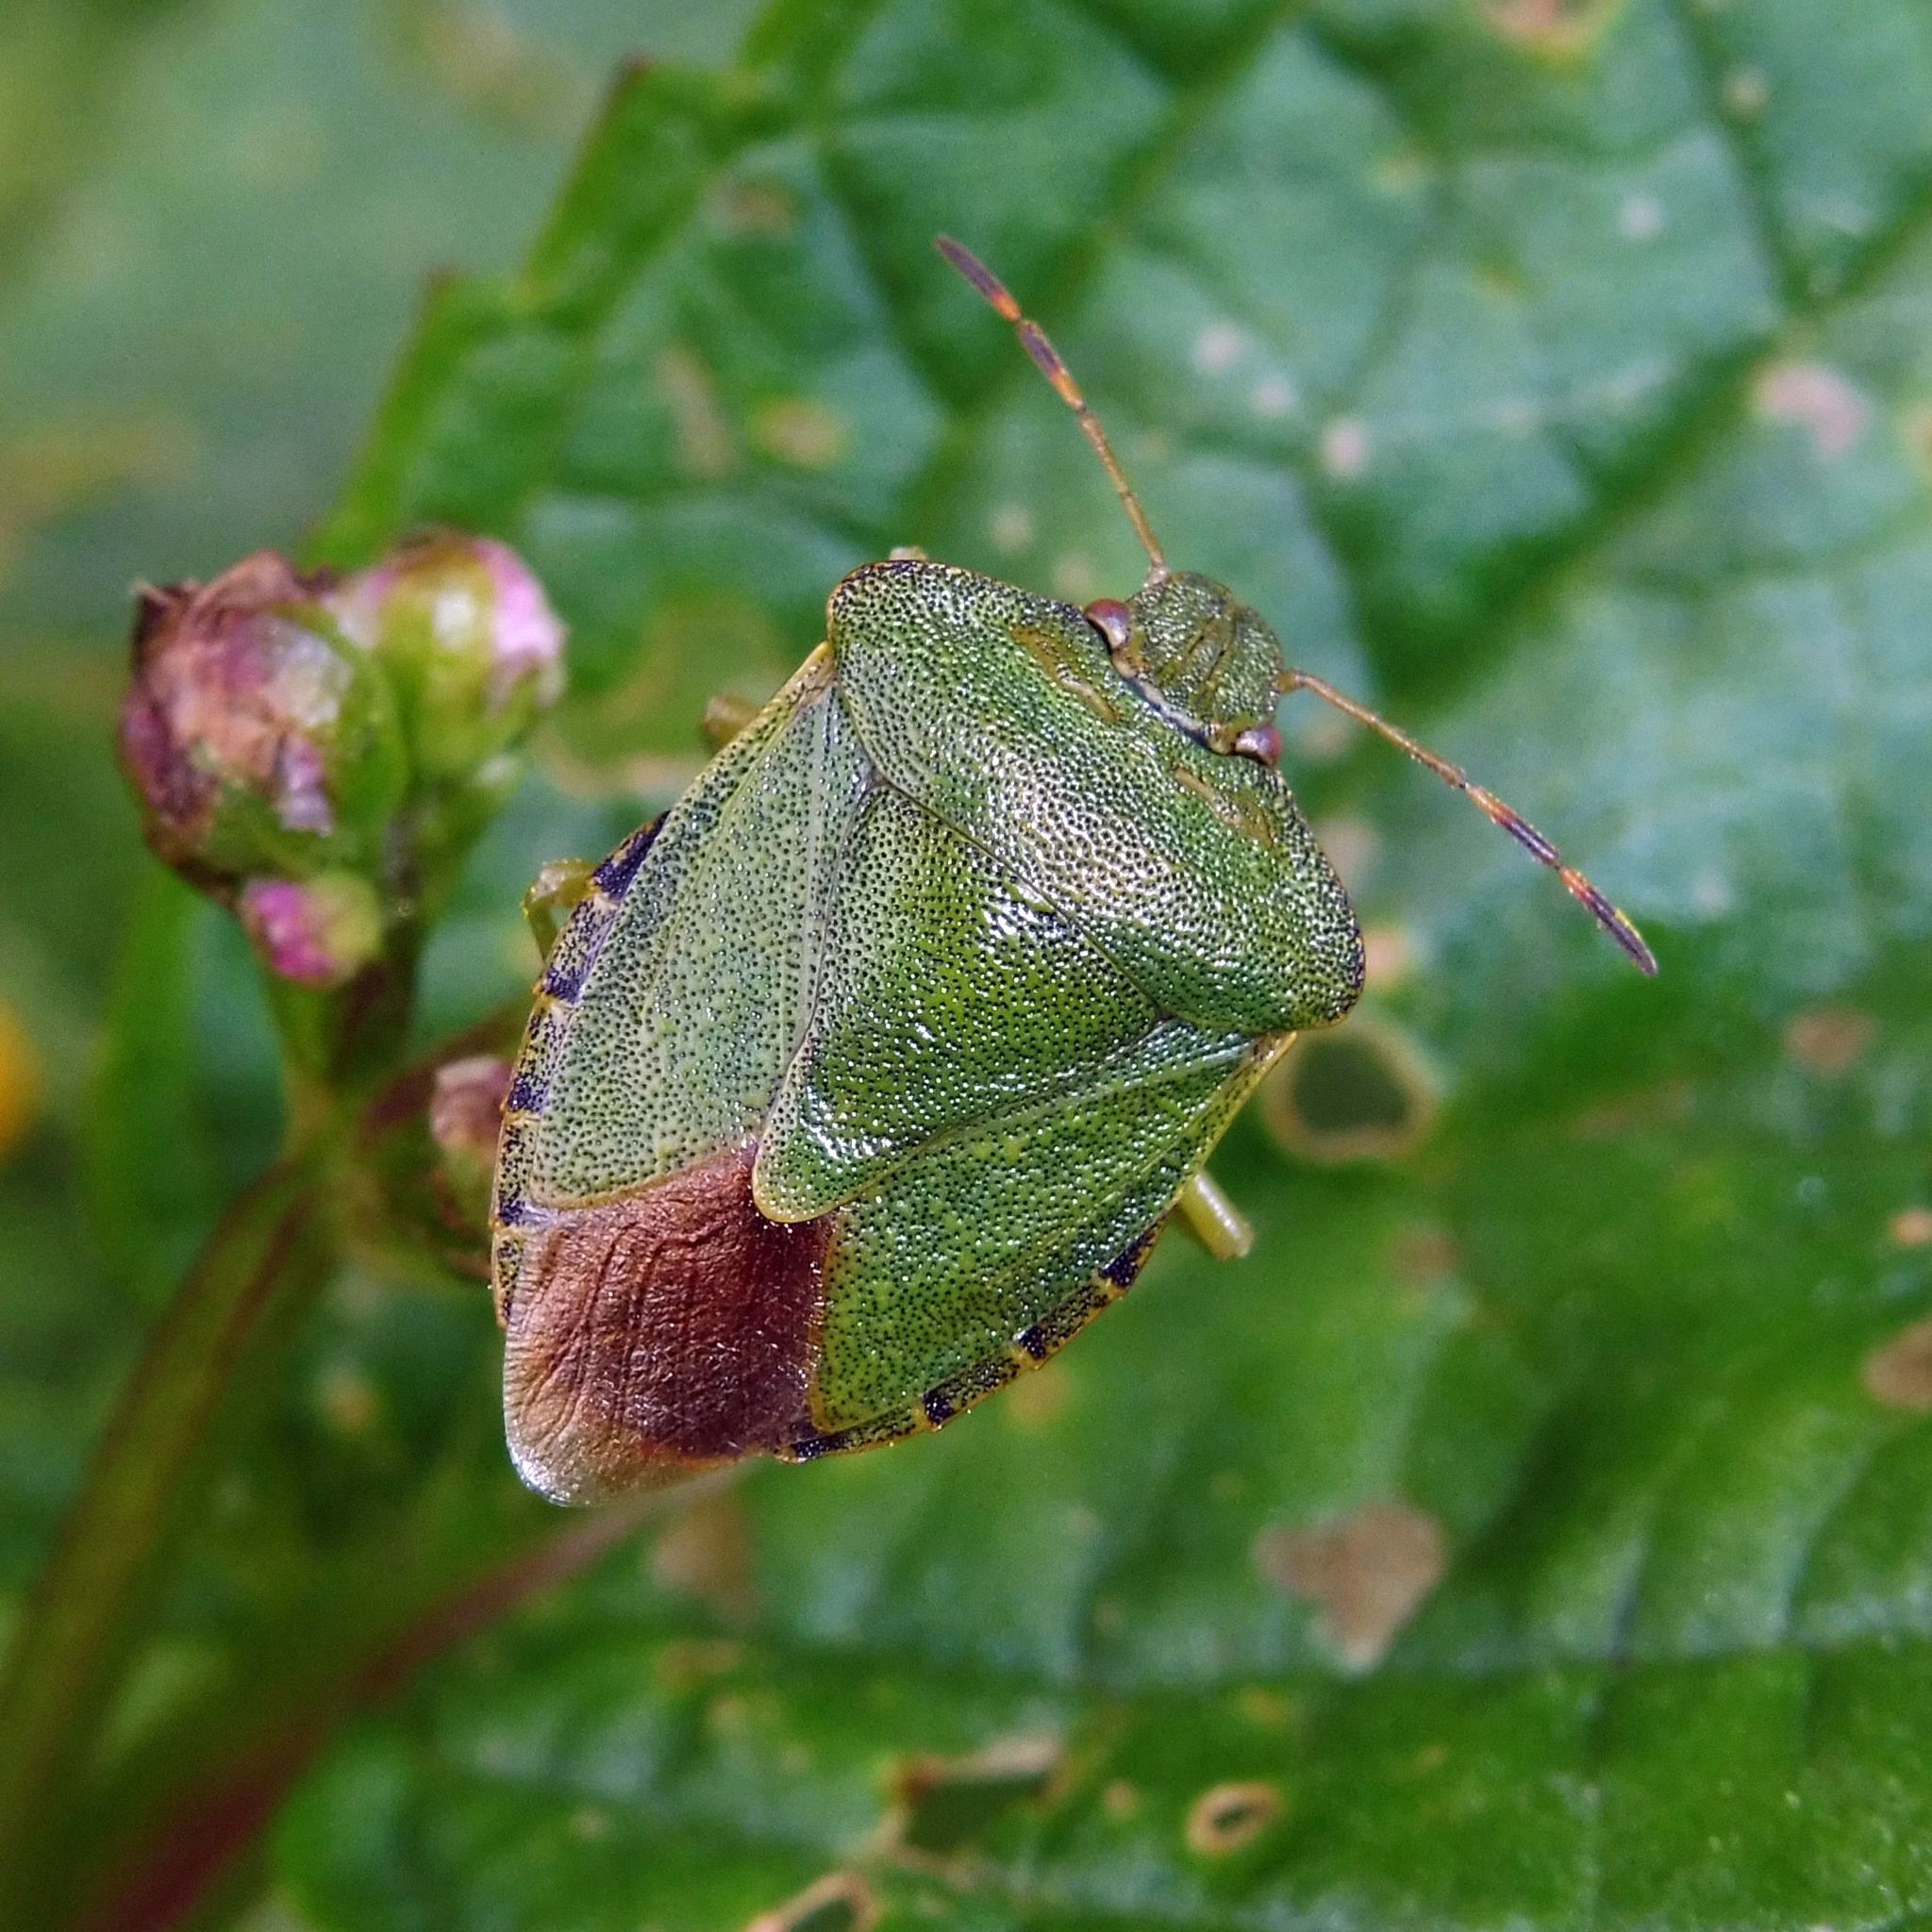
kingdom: Animalia
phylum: Arthropoda
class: Insecta
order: Hemiptera
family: Pentatomidae
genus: Palomena
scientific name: Palomena prasina
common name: Green shieldbug
